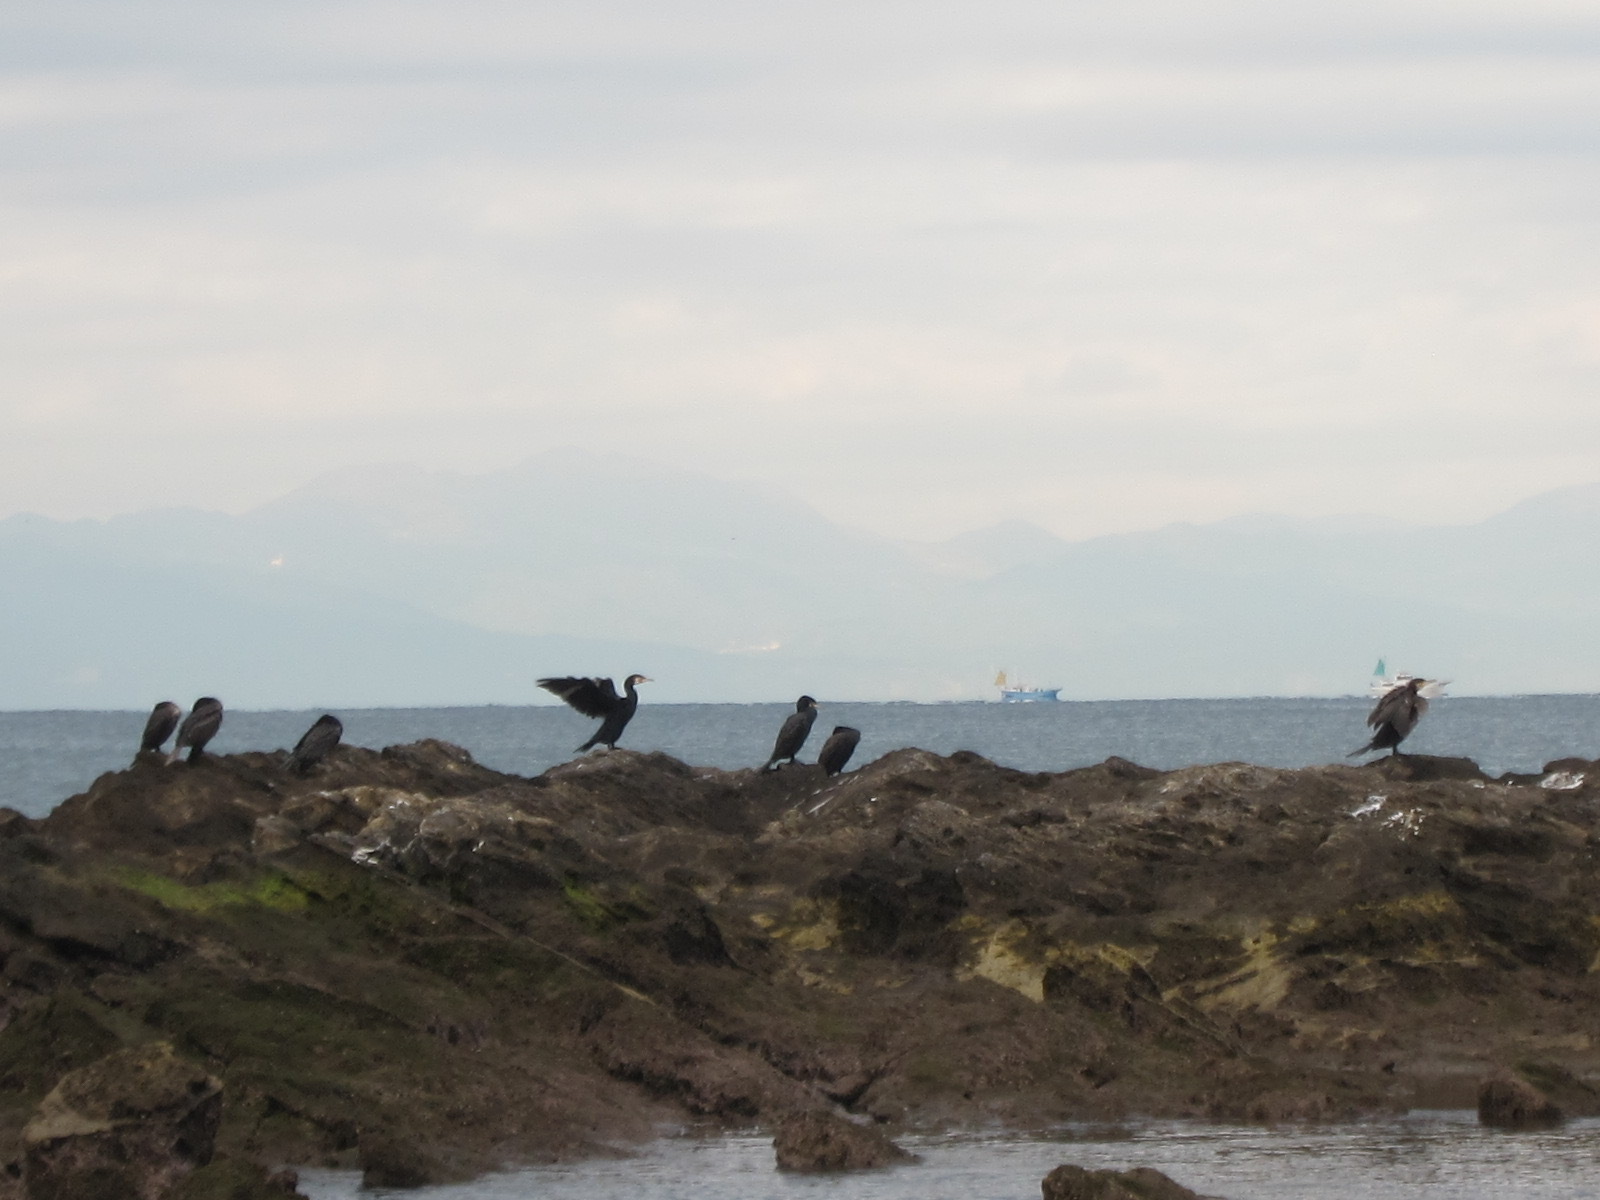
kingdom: Animalia
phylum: Chordata
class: Aves
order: Suliformes
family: Phalacrocoracidae
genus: Phalacrocorax
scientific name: Phalacrocorax capillatus
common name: Japanese cormorant
